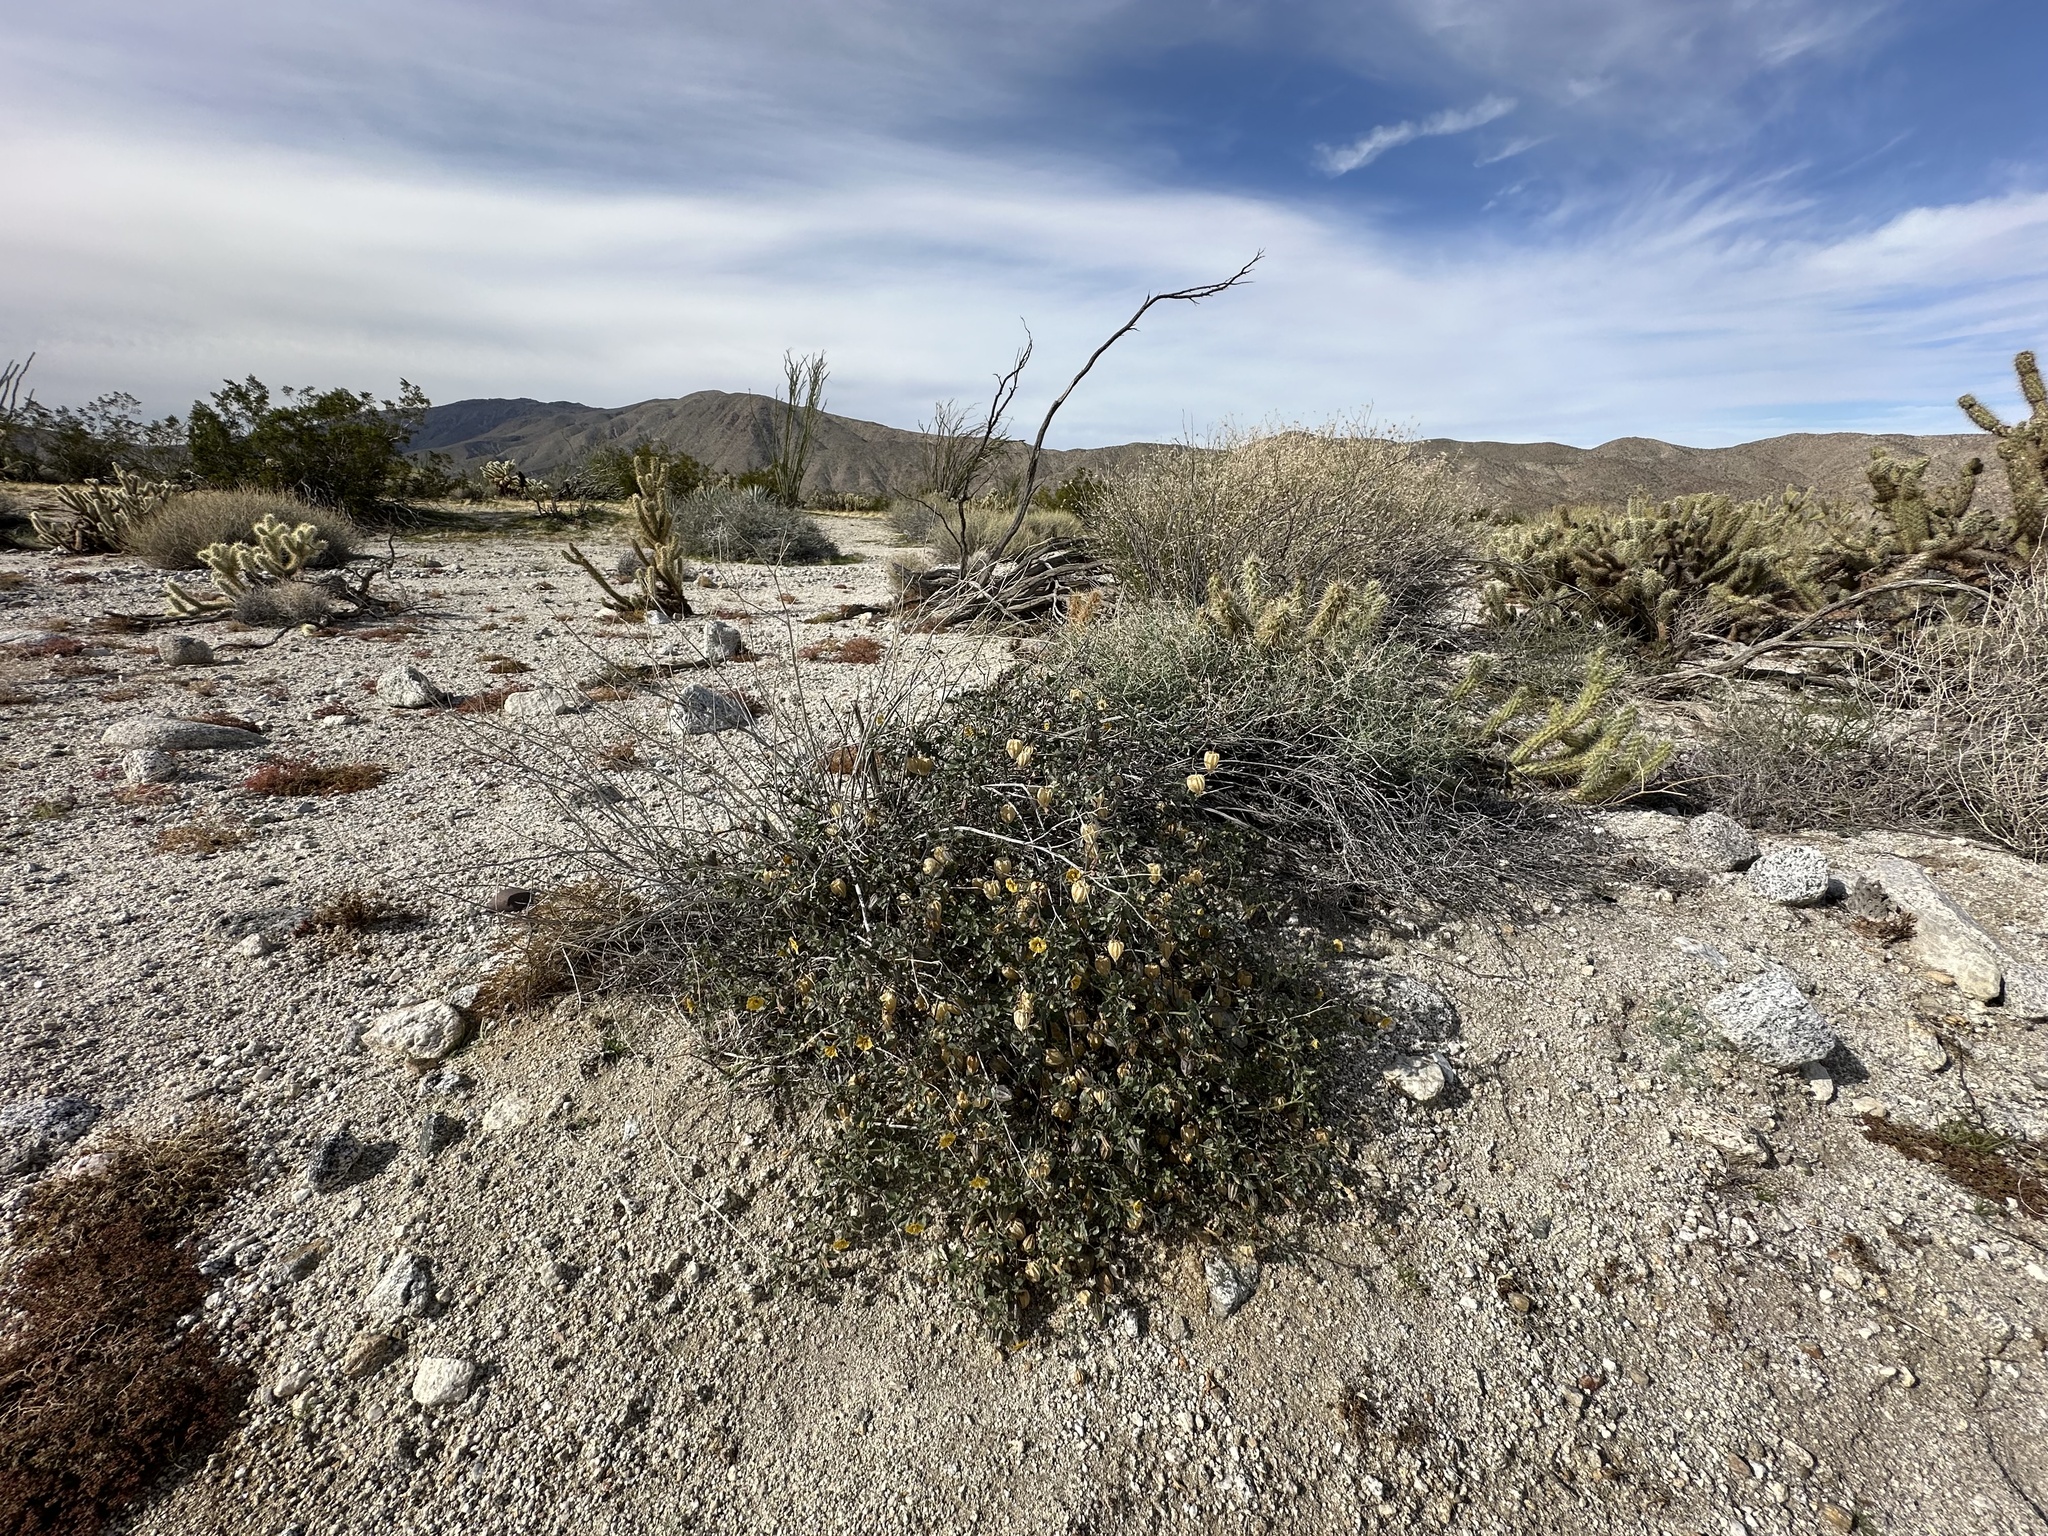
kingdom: Plantae
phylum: Tracheophyta
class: Magnoliopsida
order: Solanales
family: Solanaceae
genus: Physalis
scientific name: Physalis crassifolia
